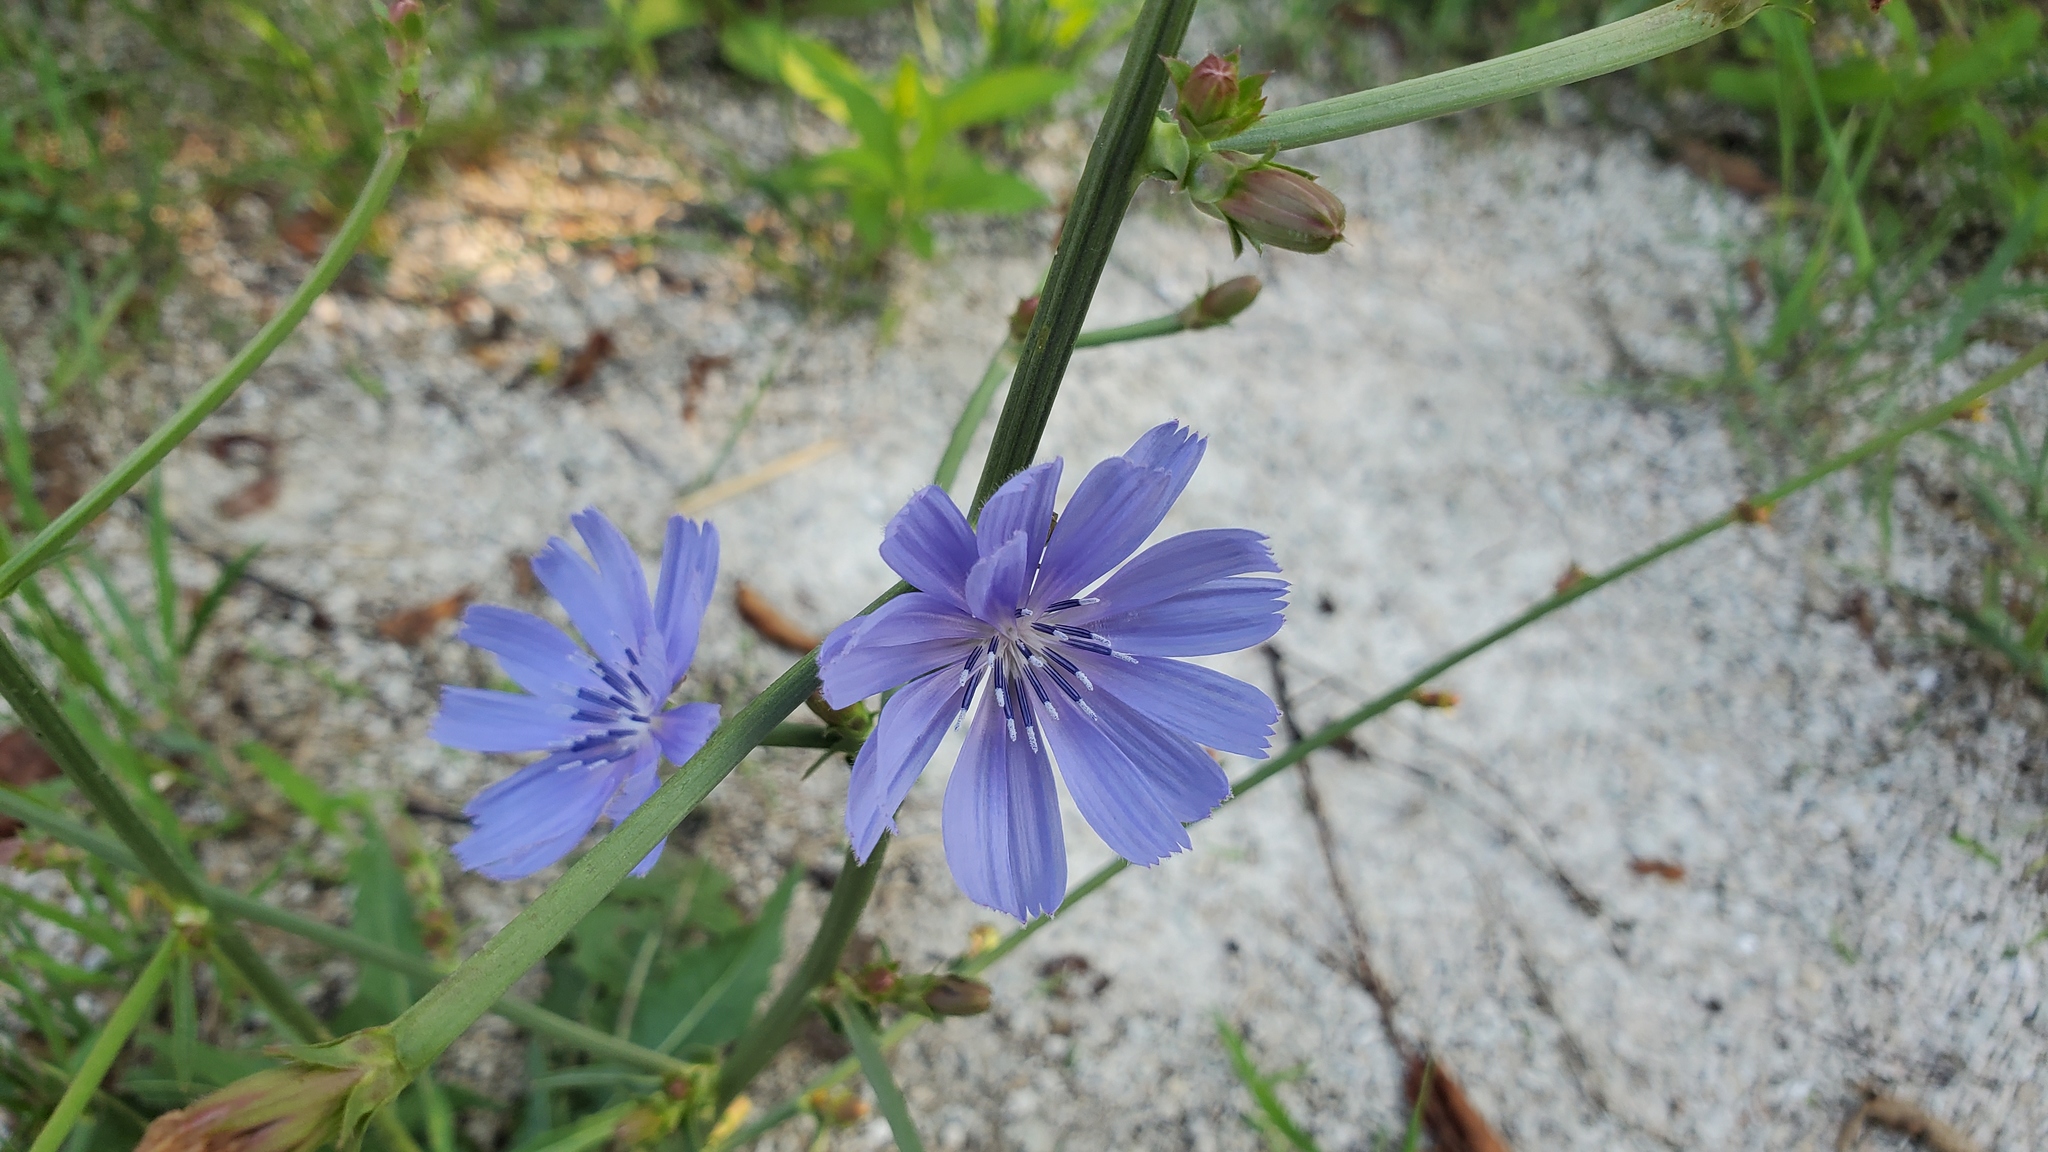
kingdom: Plantae
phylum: Tracheophyta
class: Magnoliopsida
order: Asterales
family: Asteraceae
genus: Cichorium
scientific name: Cichorium intybus
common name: Chicory
